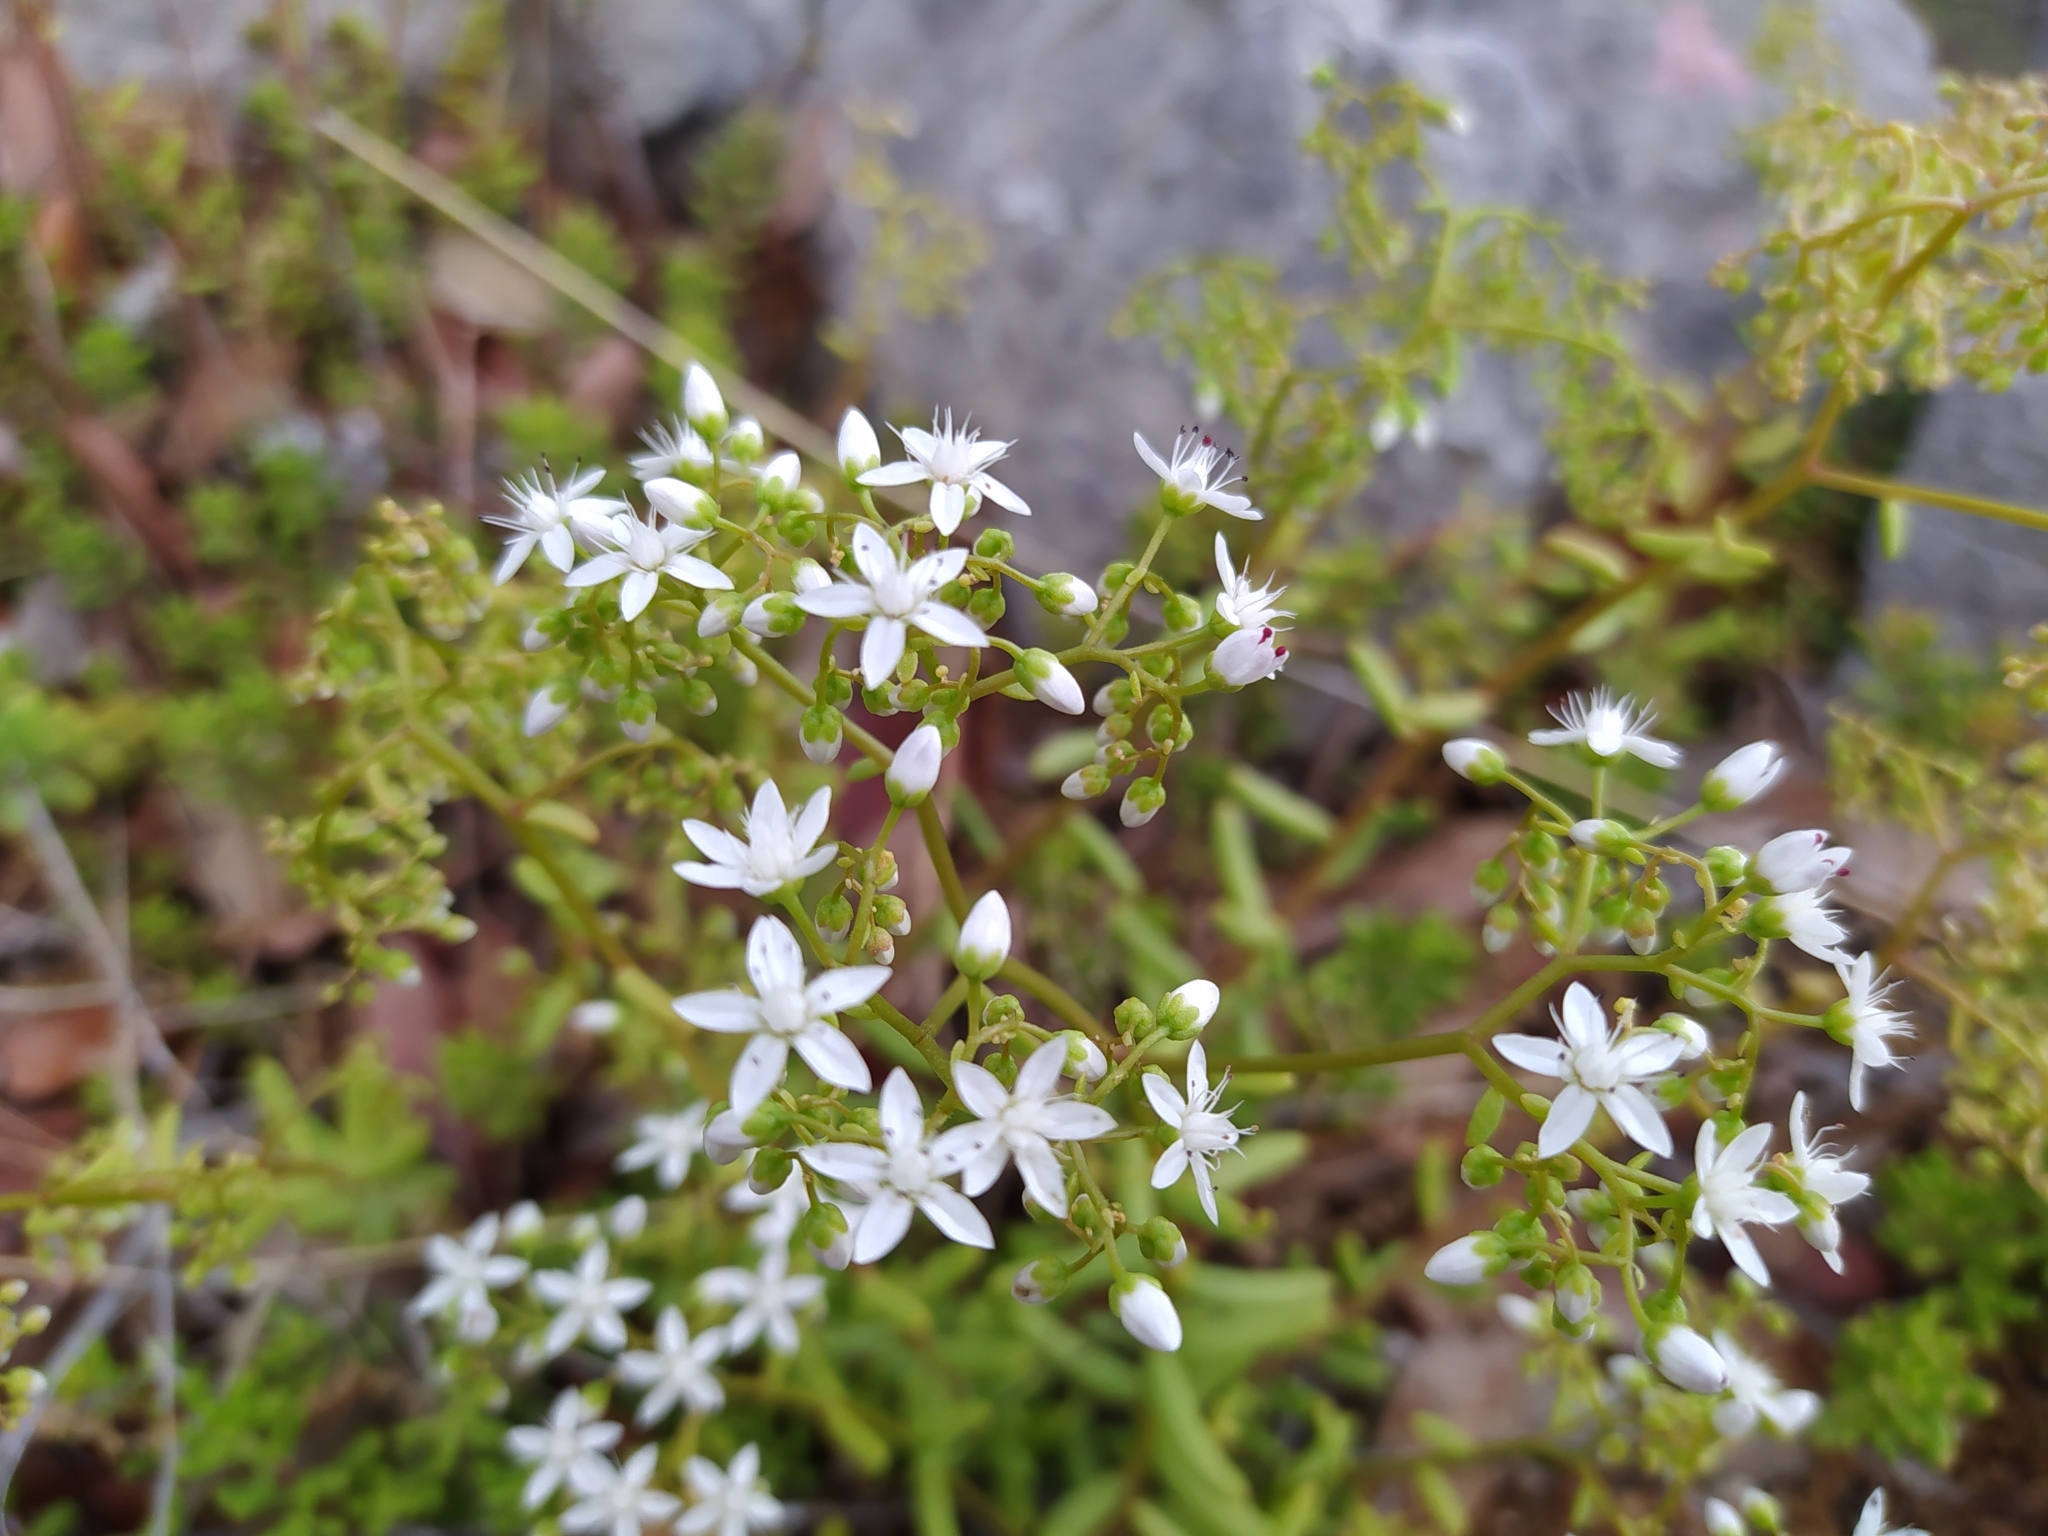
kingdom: Plantae
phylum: Tracheophyta
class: Magnoliopsida
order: Saxifragales
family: Crassulaceae
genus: Sedum
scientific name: Sedum album
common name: White stonecrop
